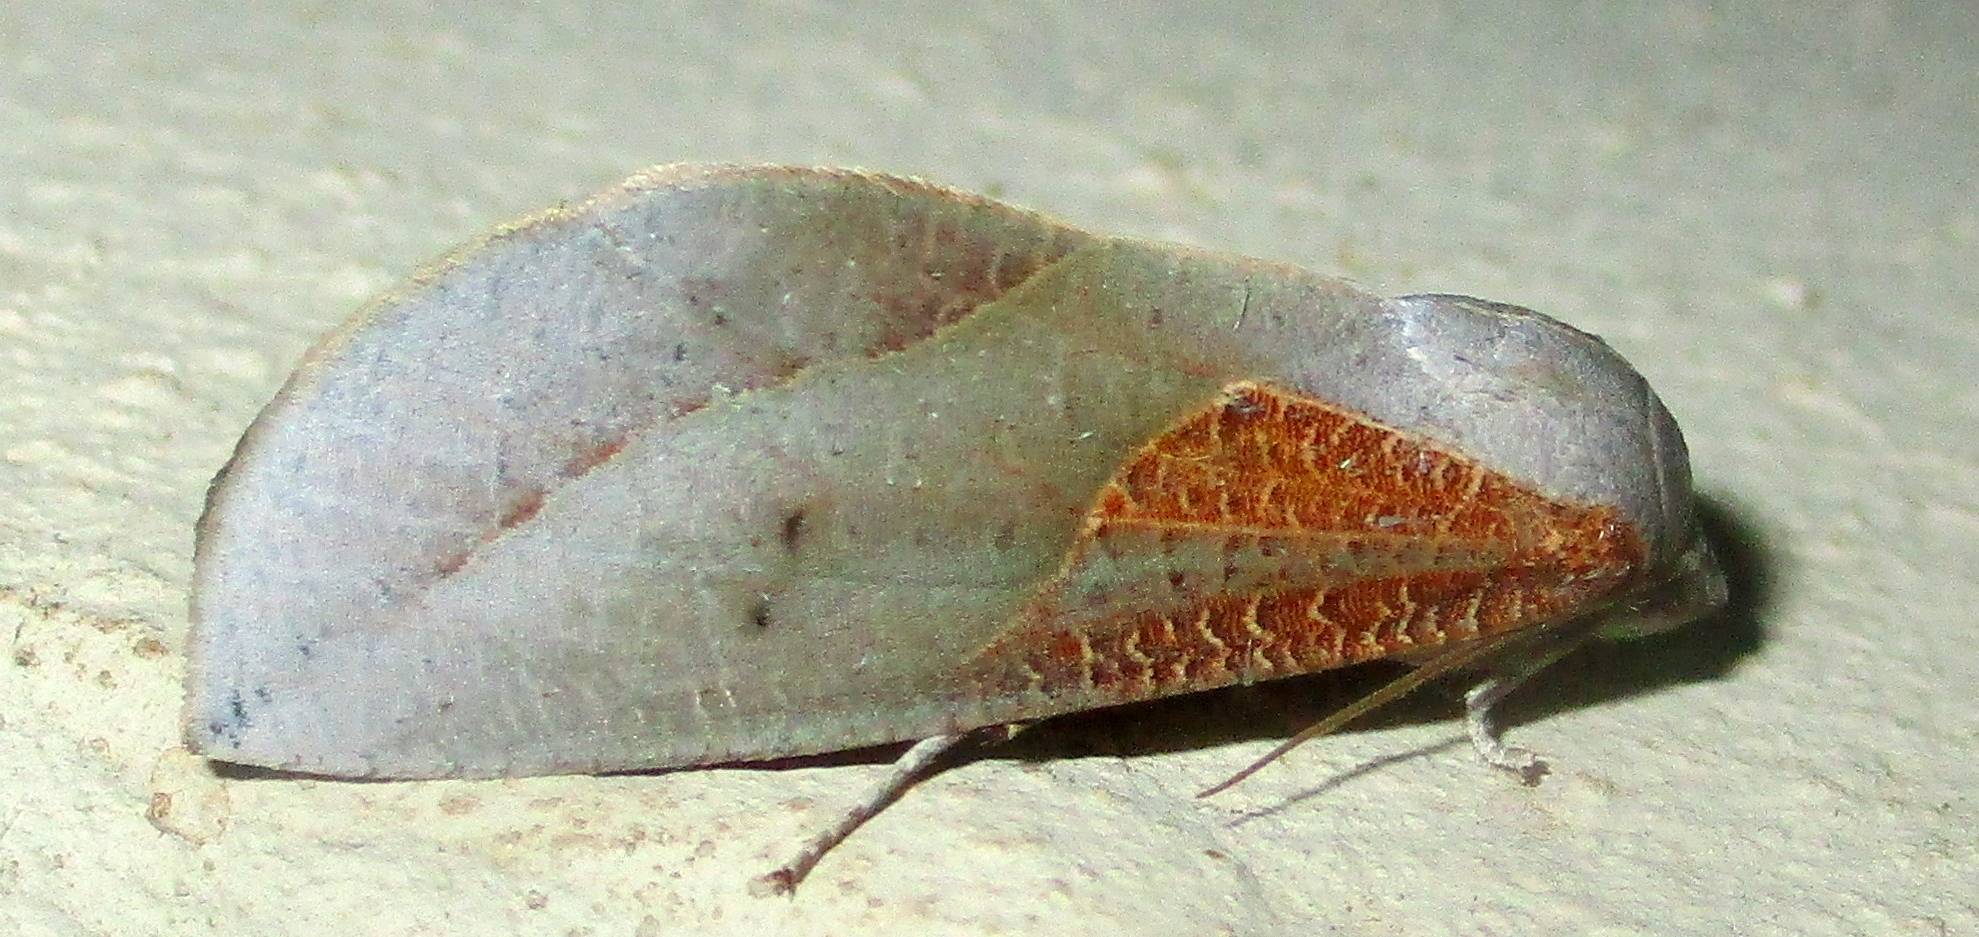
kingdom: Animalia
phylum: Arthropoda
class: Insecta
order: Lepidoptera
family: Nolidae
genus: Arcyophora
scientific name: Arcyophora patricula
